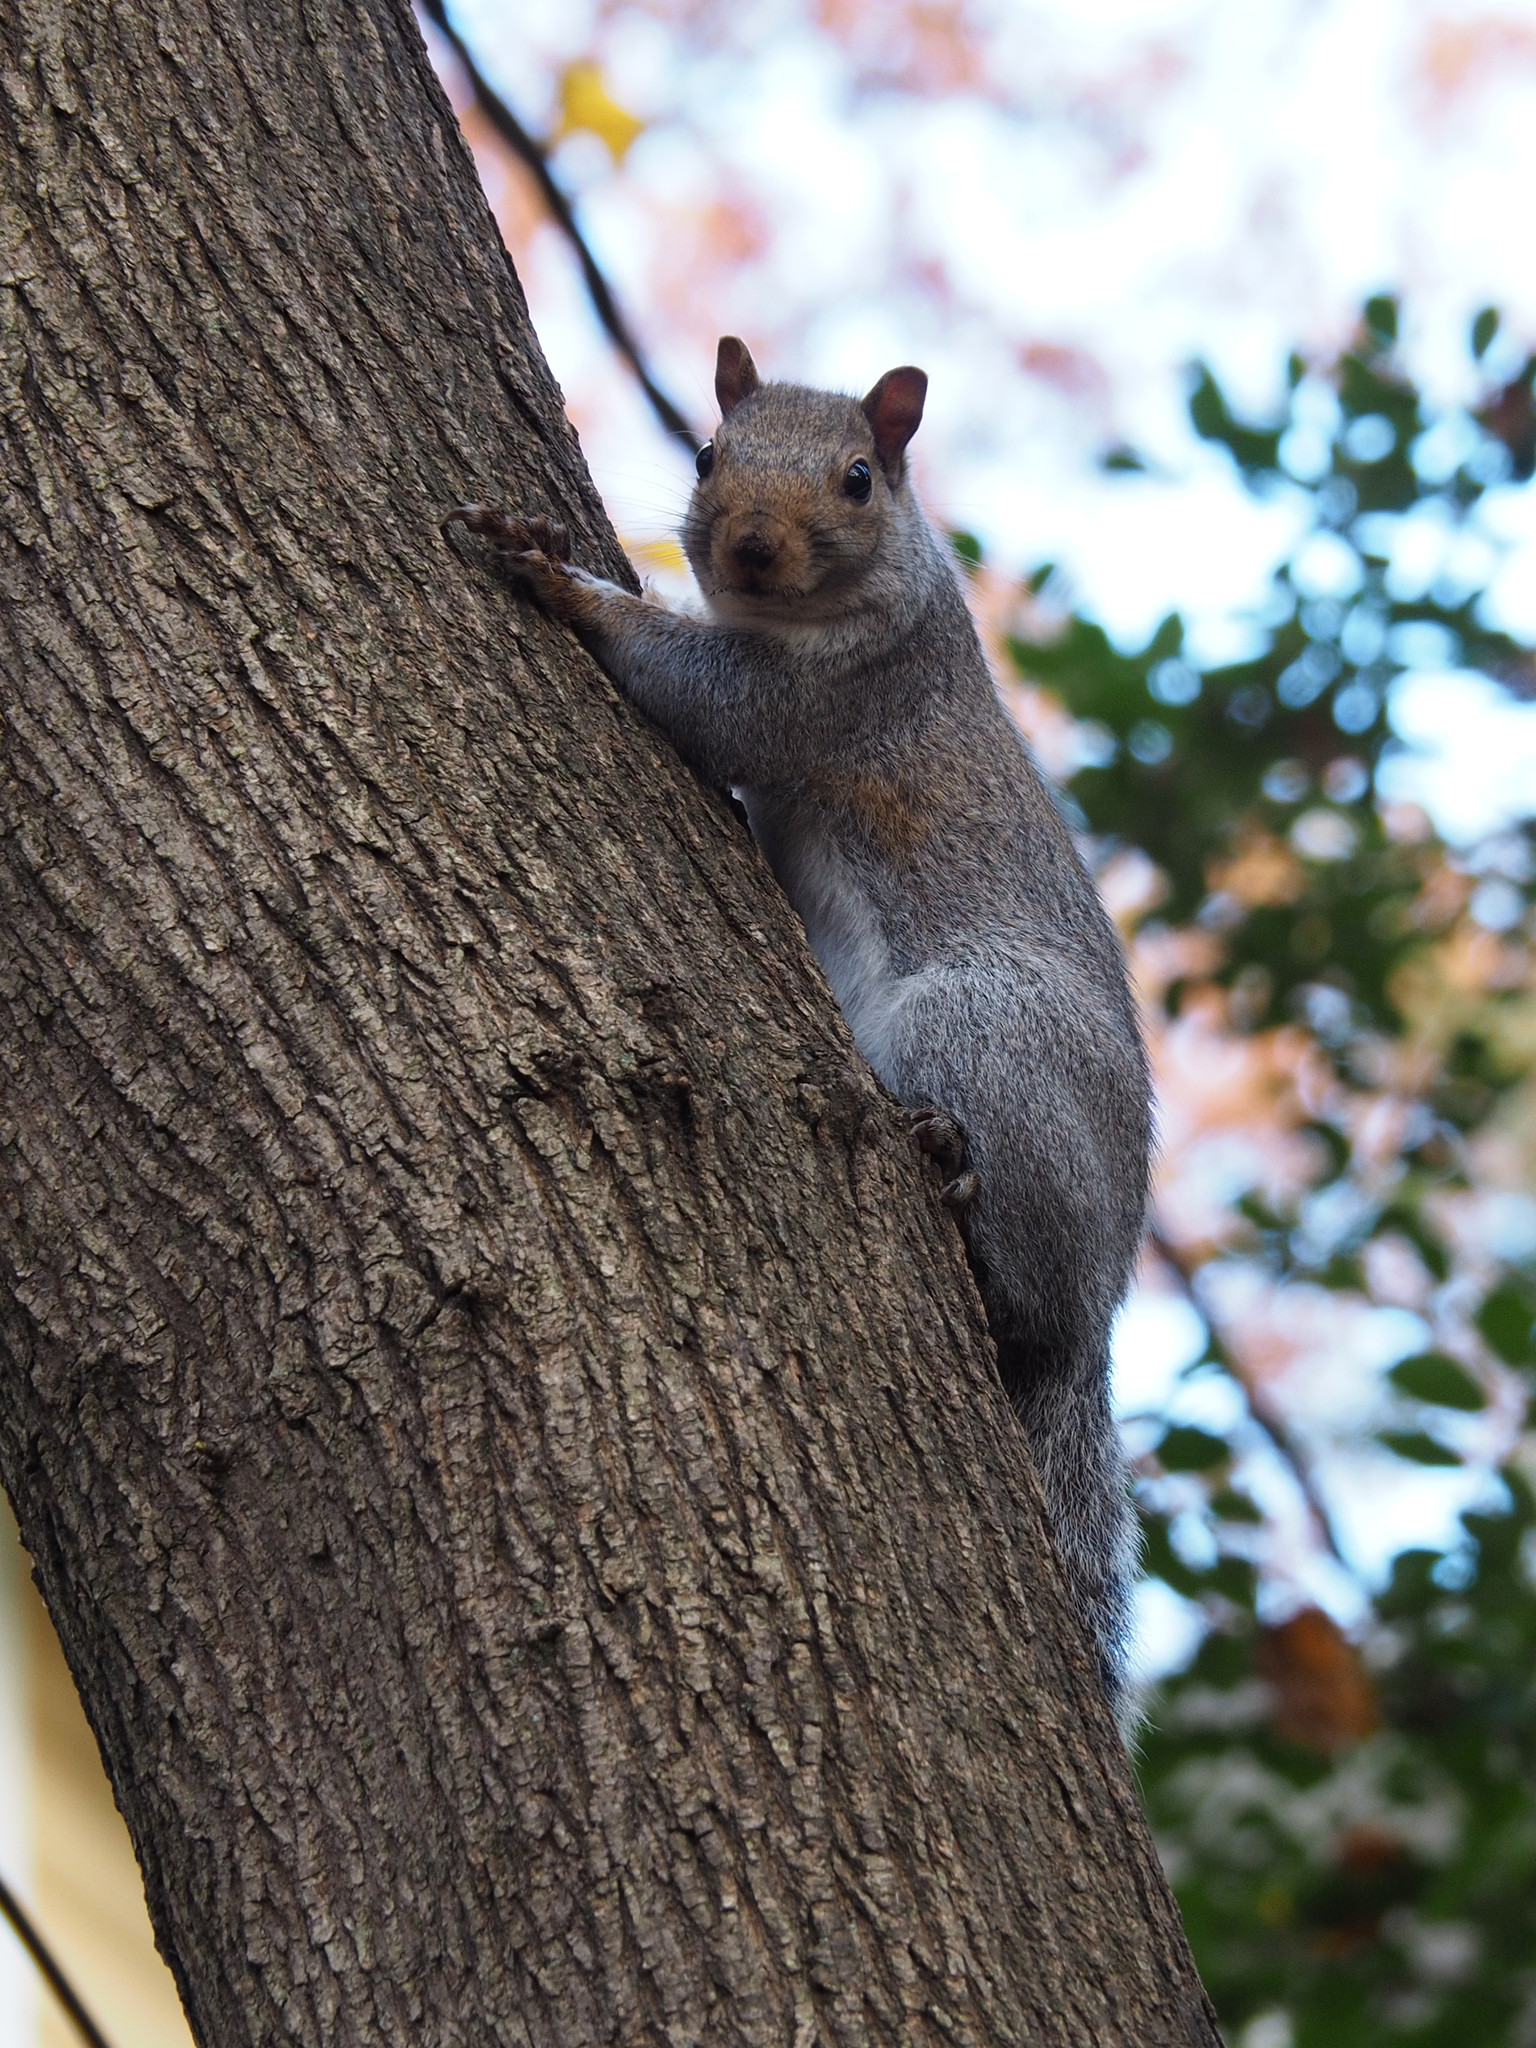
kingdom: Animalia
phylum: Chordata
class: Mammalia
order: Rodentia
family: Sciuridae
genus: Sciurus
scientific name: Sciurus carolinensis
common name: Eastern gray squirrel
